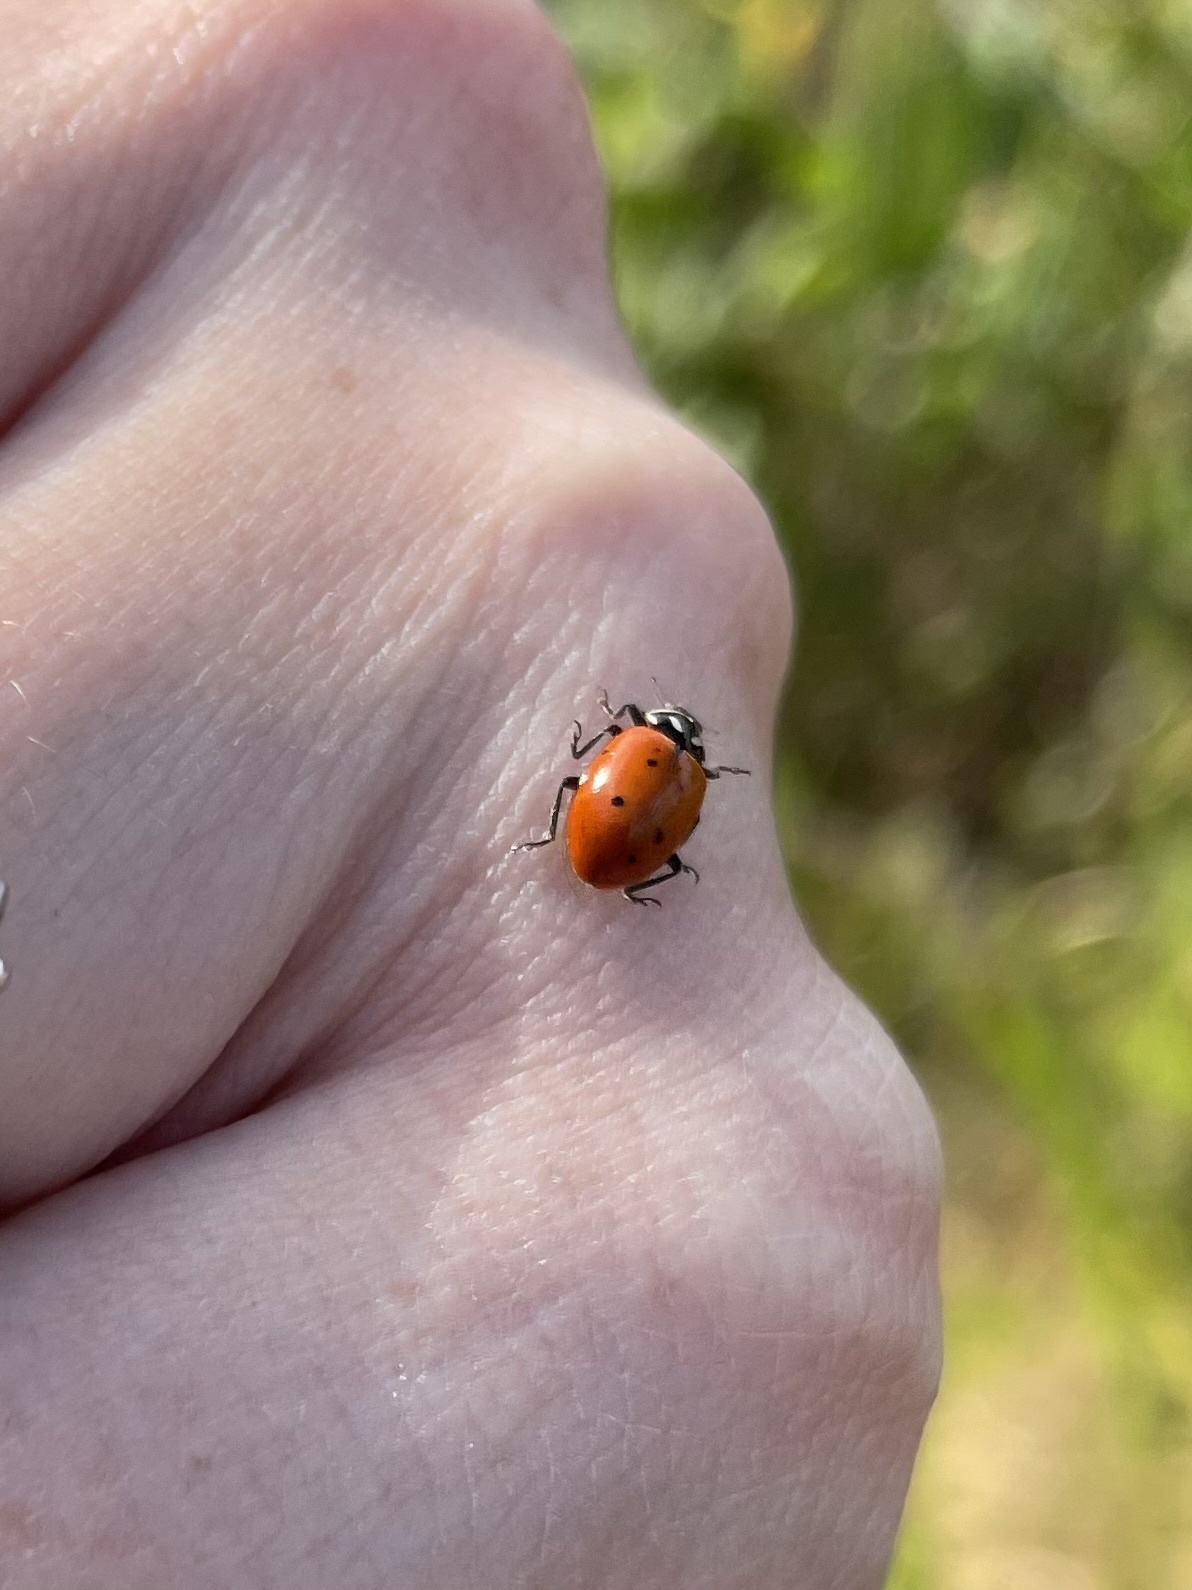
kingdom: Animalia
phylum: Arthropoda
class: Insecta
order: Coleoptera
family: Coccinellidae
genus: Hippodamia
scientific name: Hippodamia convergens
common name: Convergent lady beetle
